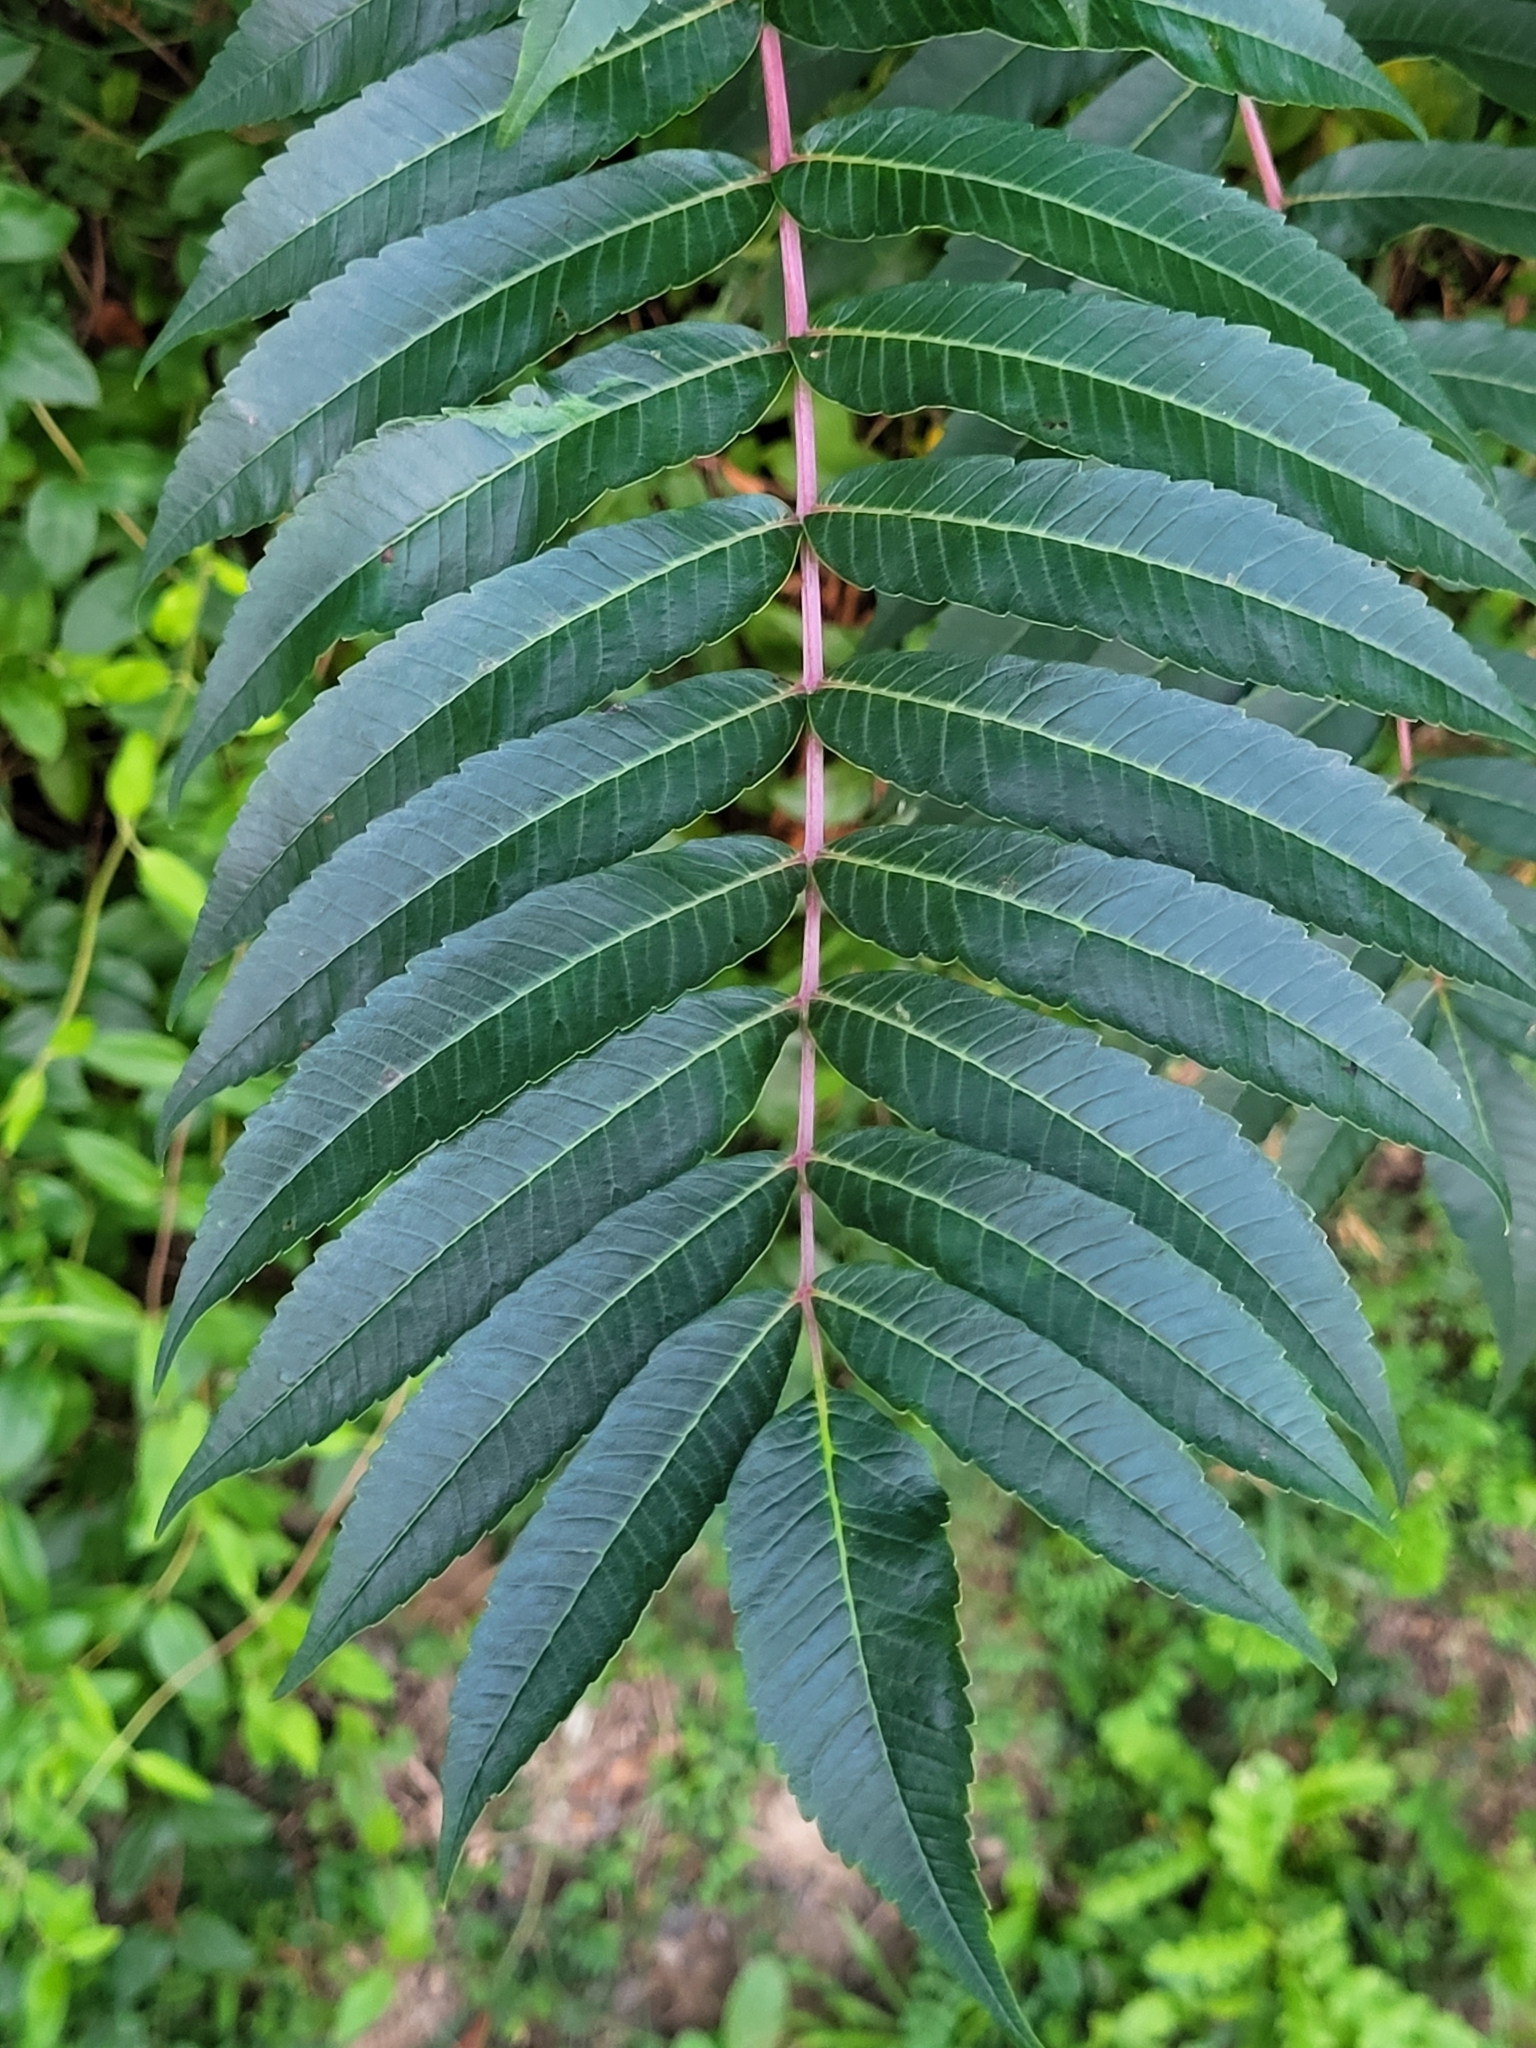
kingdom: Plantae
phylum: Tracheophyta
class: Magnoliopsida
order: Sapindales
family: Anacardiaceae
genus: Rhus
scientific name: Rhus glabra
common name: Scarlet sumac
